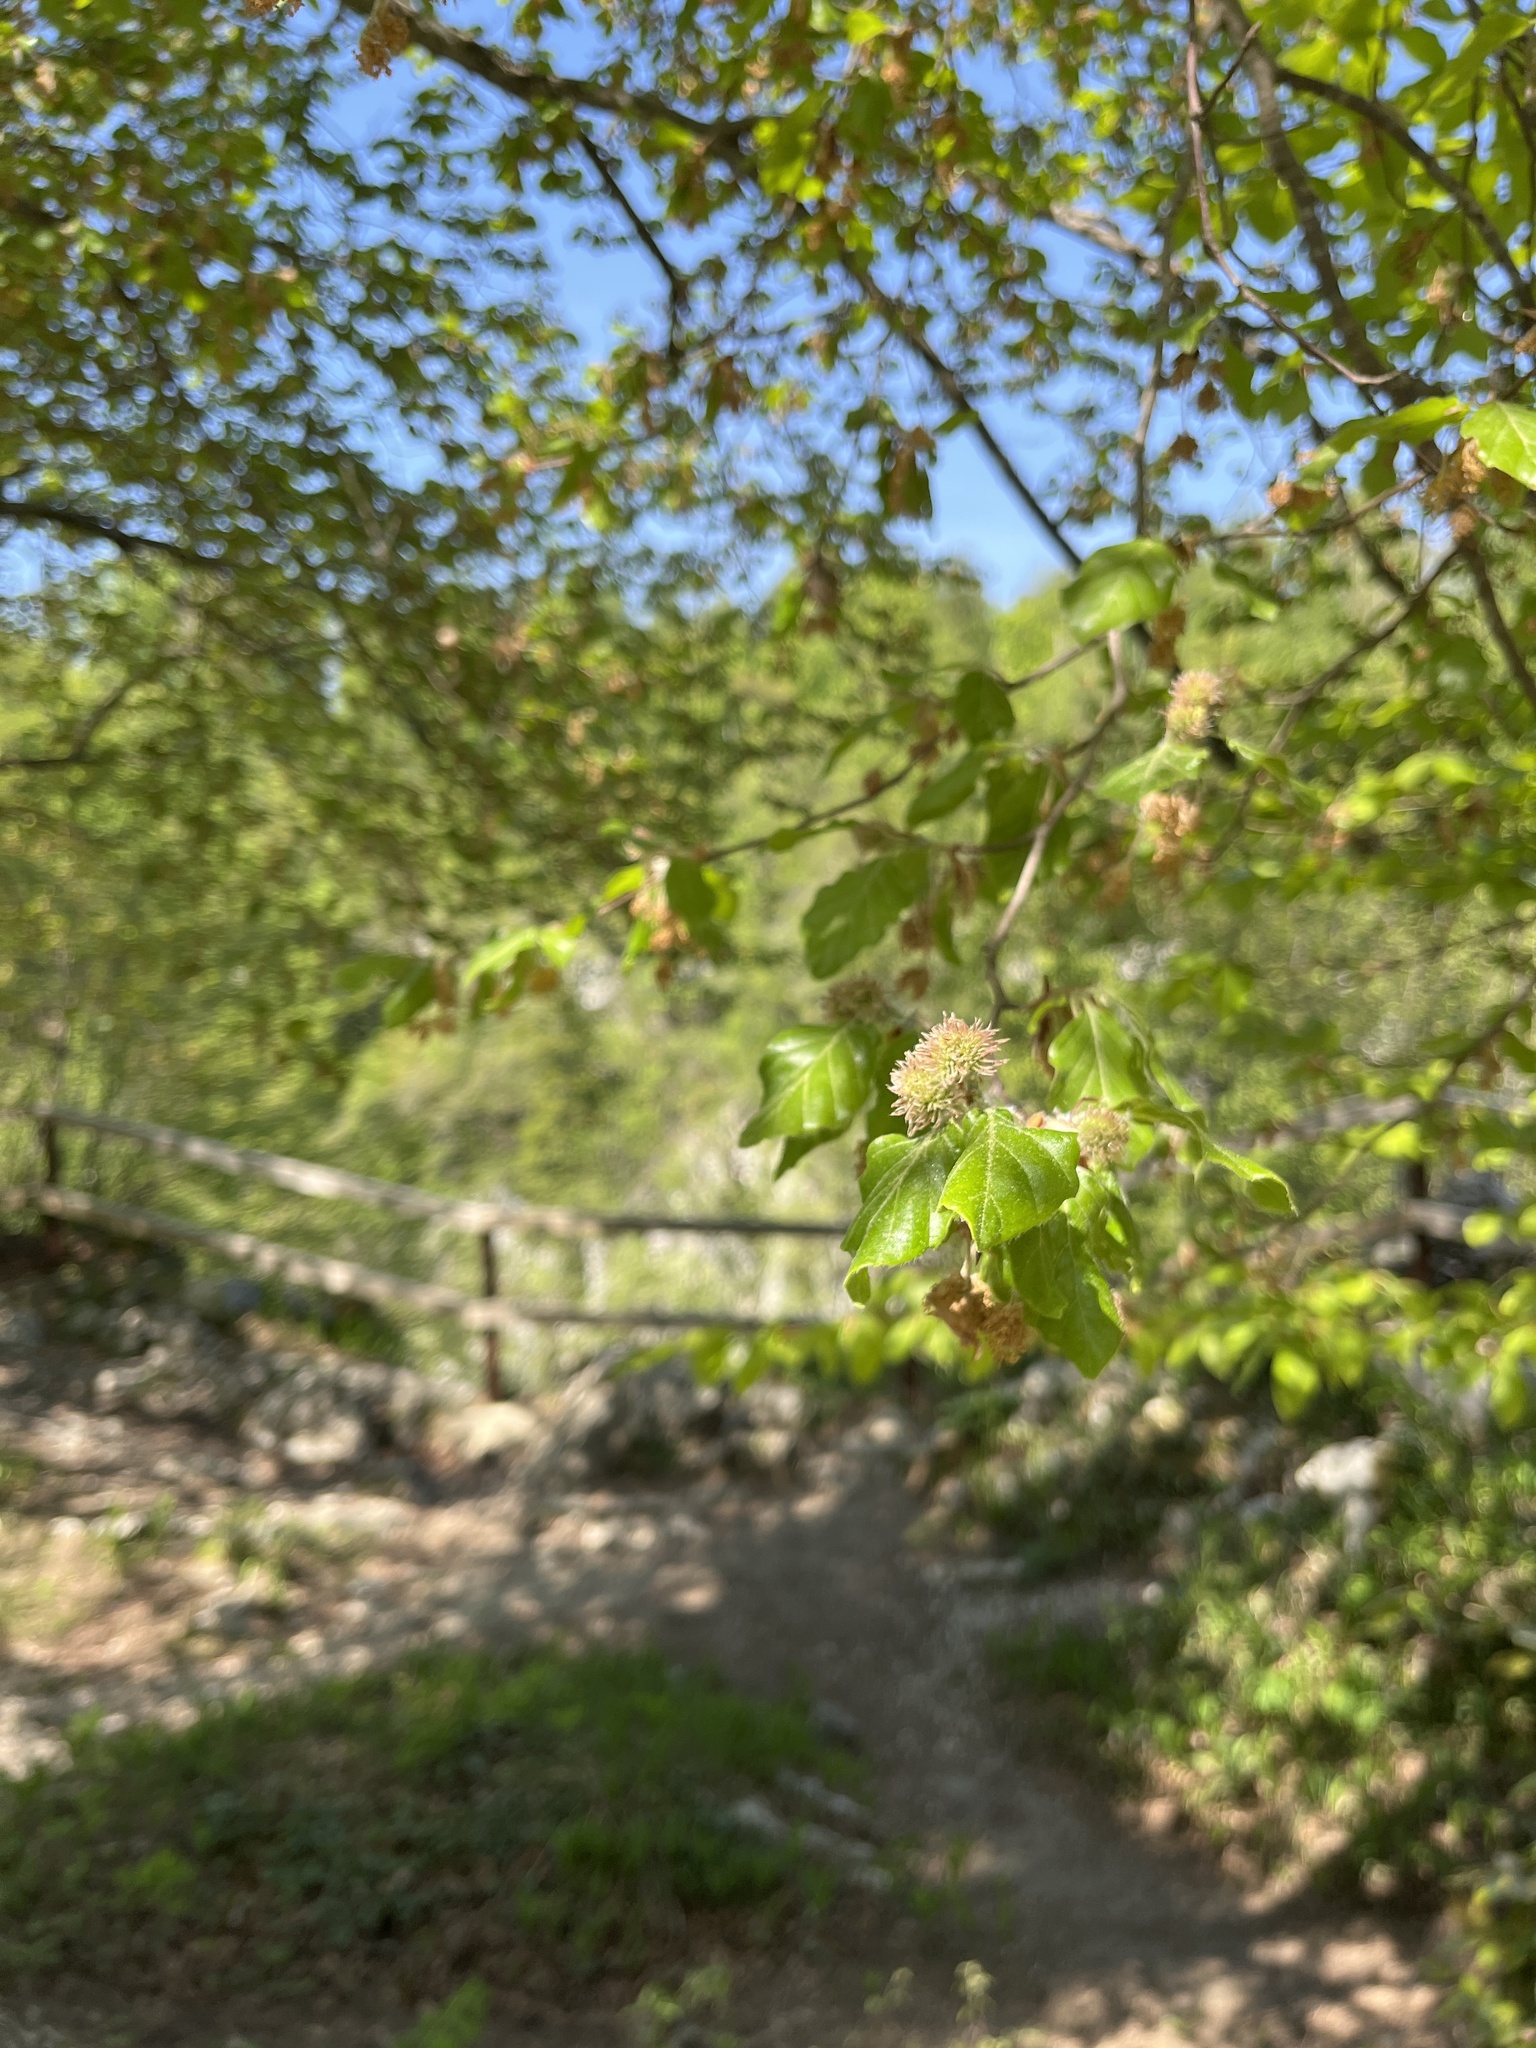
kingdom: Plantae
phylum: Tracheophyta
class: Magnoliopsida
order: Fagales
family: Fagaceae
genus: Fagus
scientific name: Fagus sylvatica
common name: Beech
